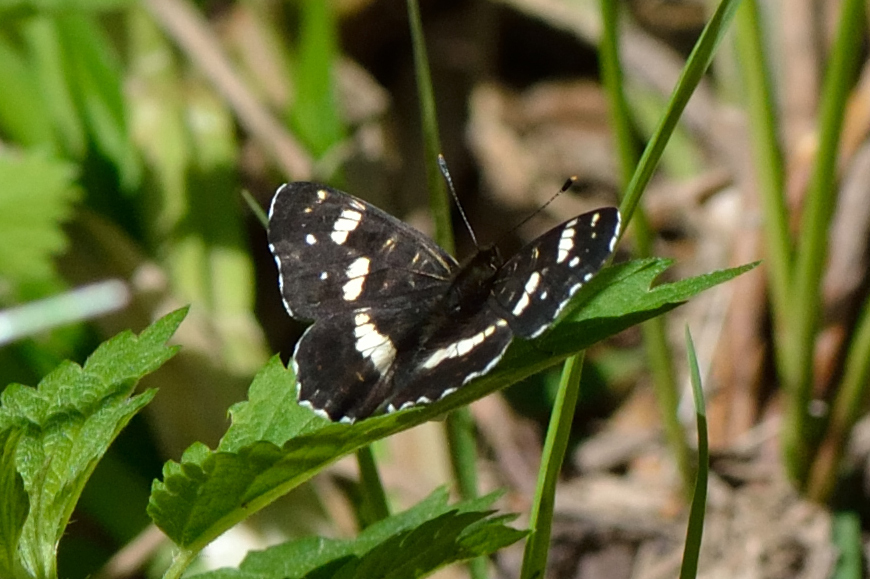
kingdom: Animalia
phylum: Arthropoda
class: Insecta
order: Lepidoptera
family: Nymphalidae
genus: Araschnia
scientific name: Araschnia levana
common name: Map butterfly
